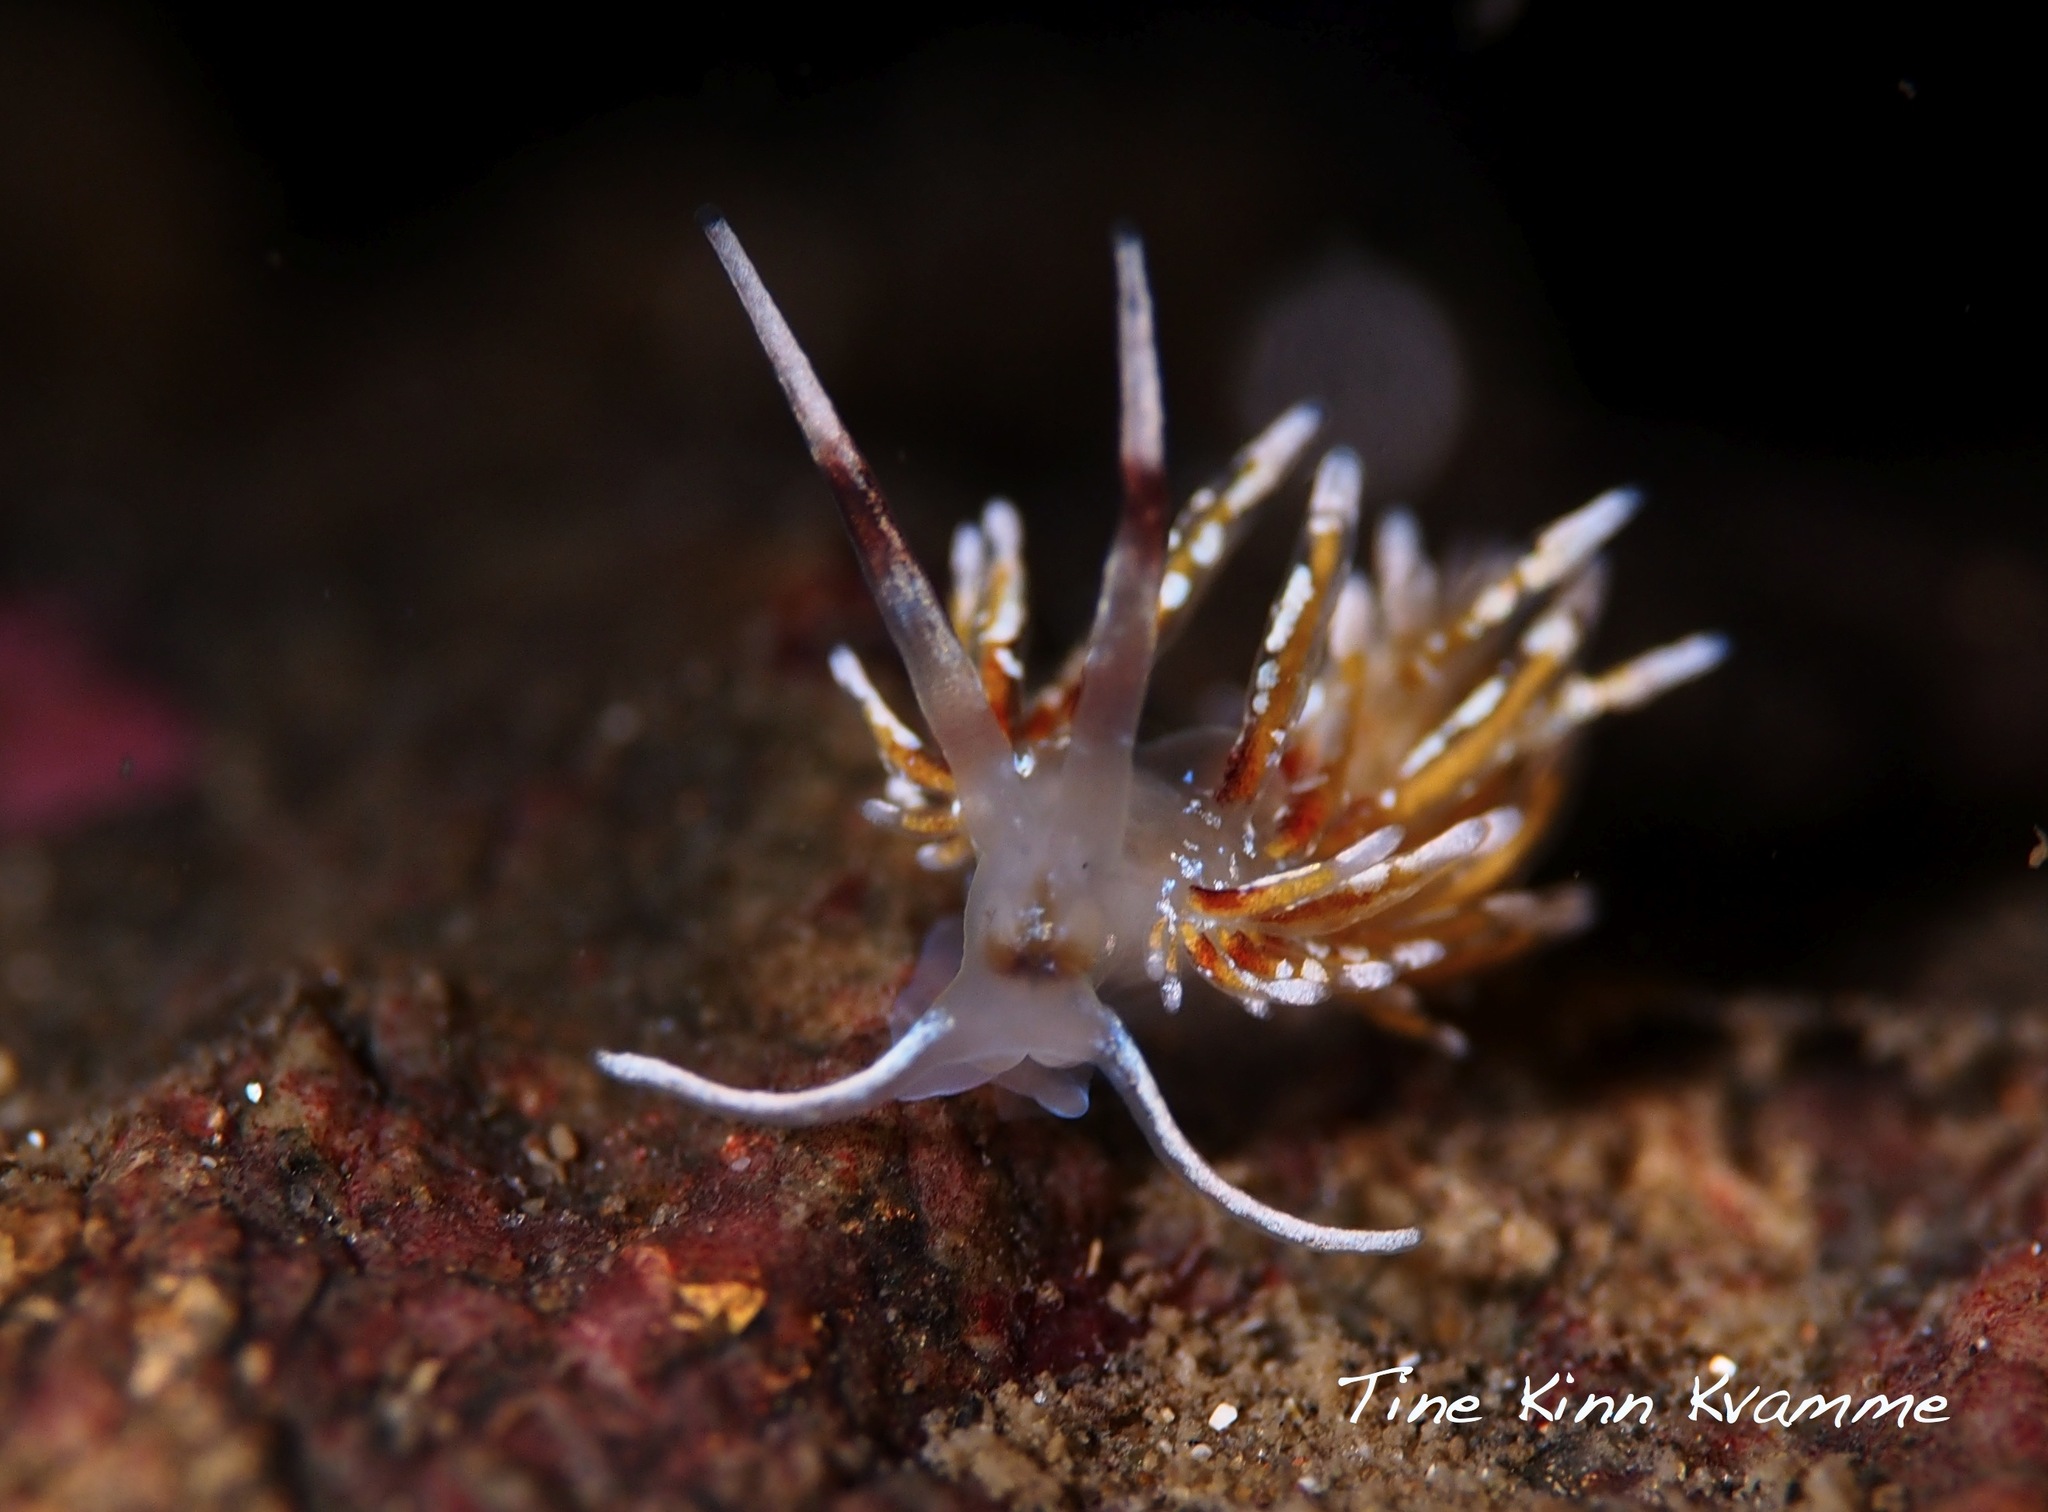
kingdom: Animalia
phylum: Mollusca
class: Gastropoda
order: Nudibranchia
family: Trinchesiidae
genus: Rubramoena
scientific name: Rubramoena rubescens
